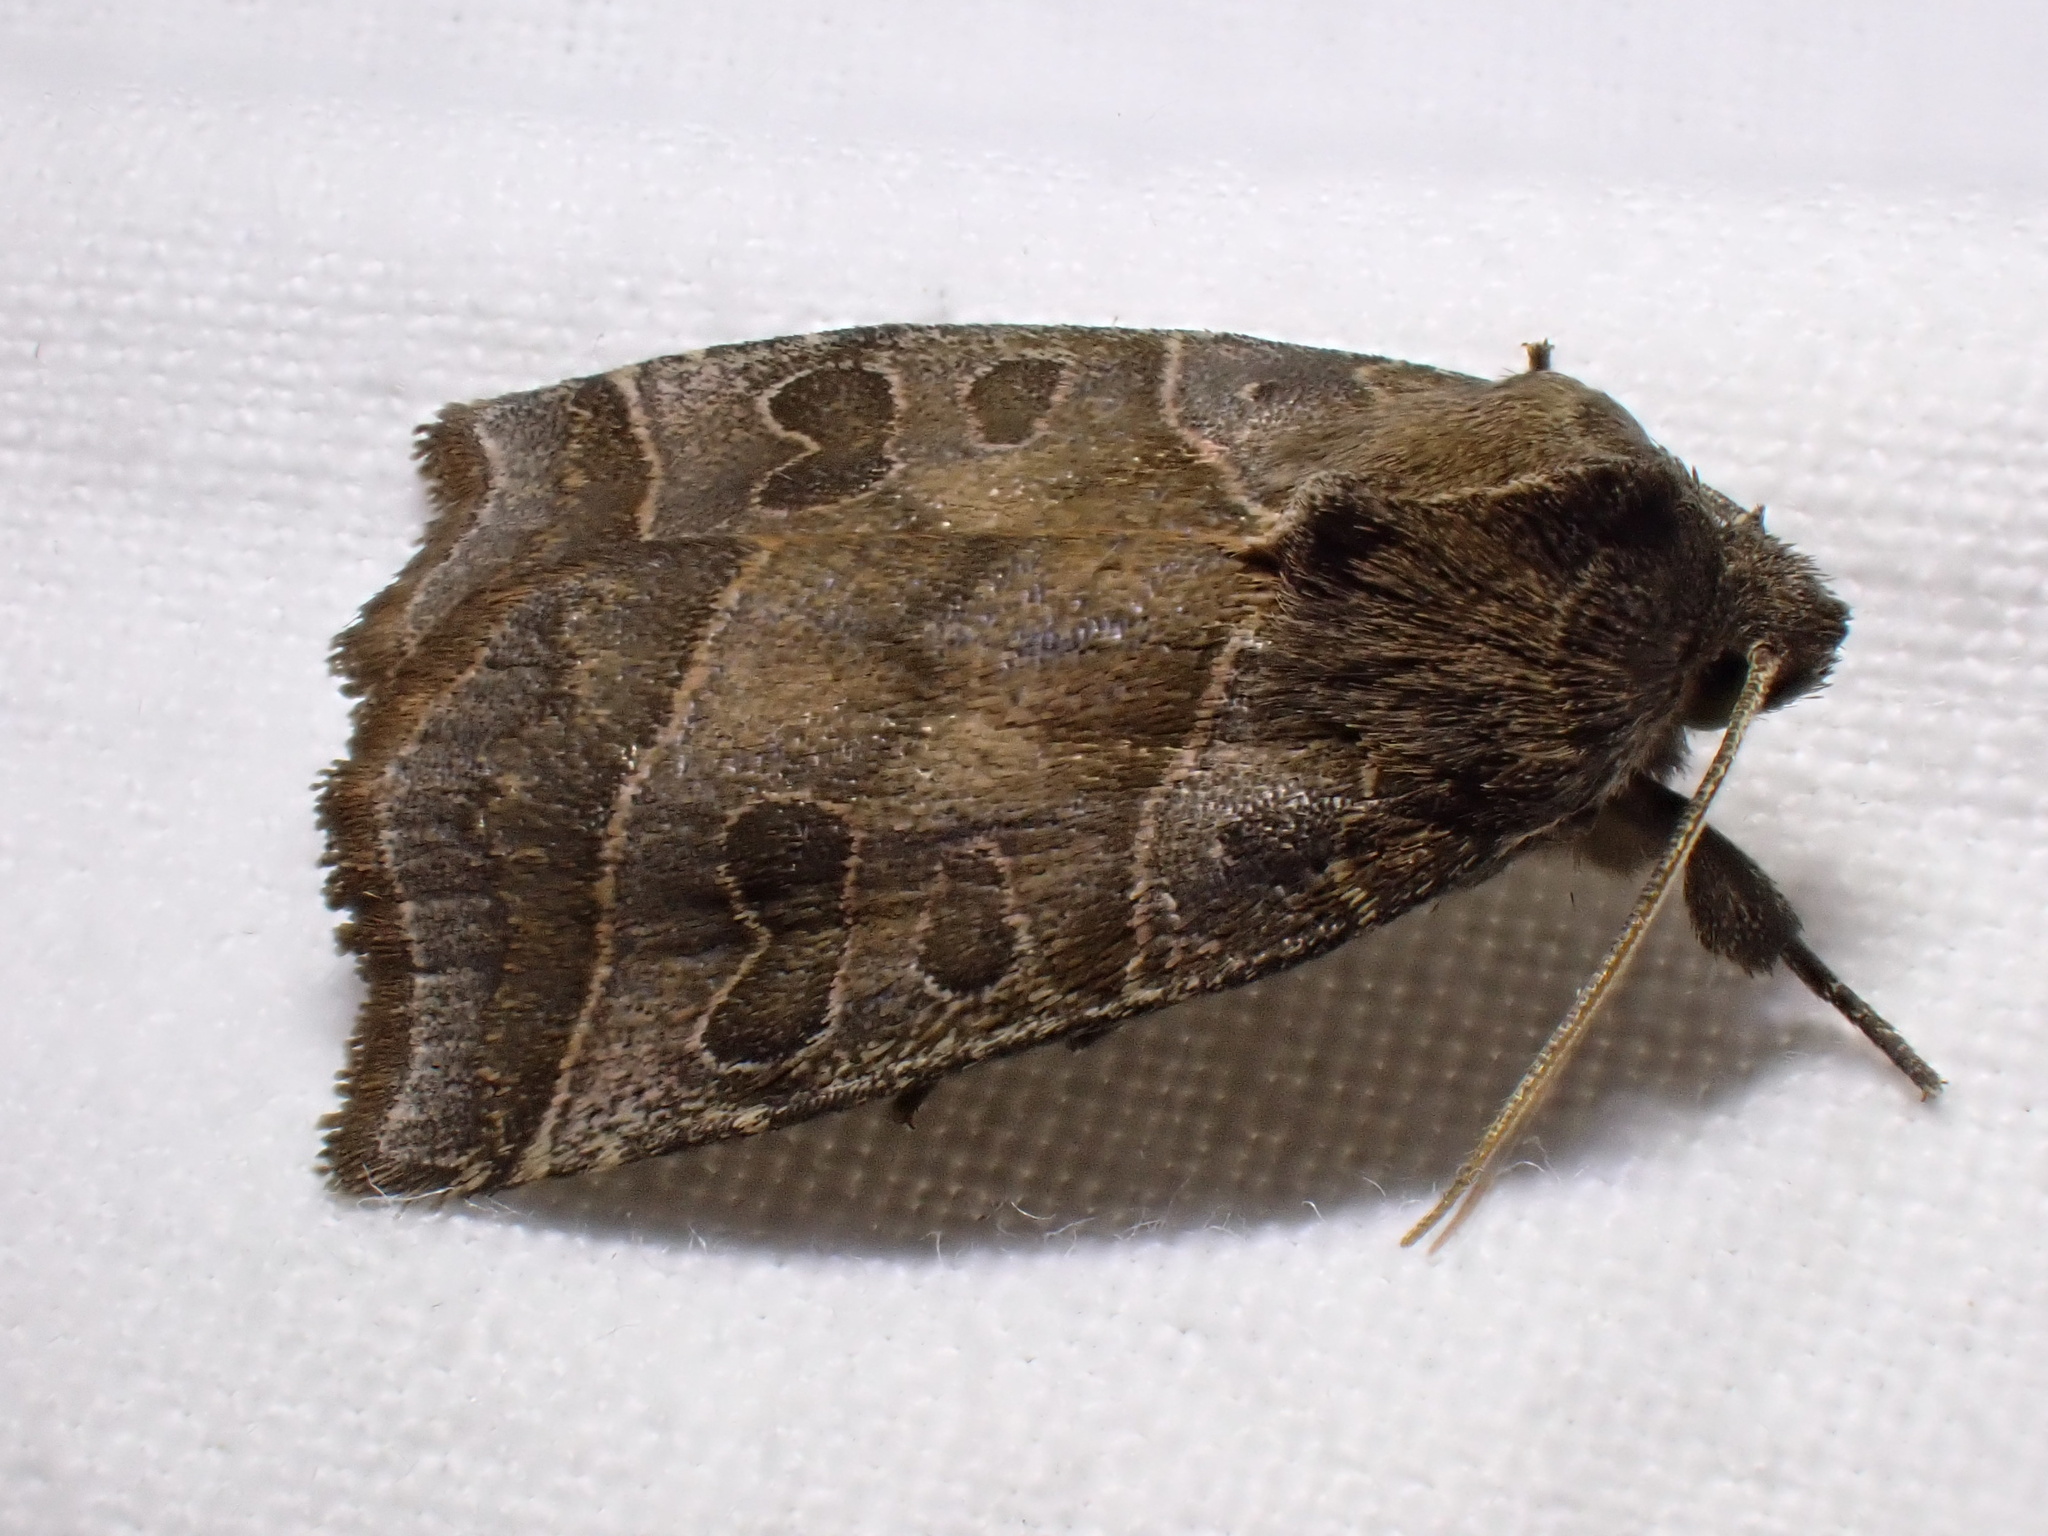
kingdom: Animalia
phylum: Arthropoda
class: Insecta
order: Lepidoptera
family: Noctuidae
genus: Ipimorpha
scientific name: Ipimorpha retusa
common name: Double kidney
